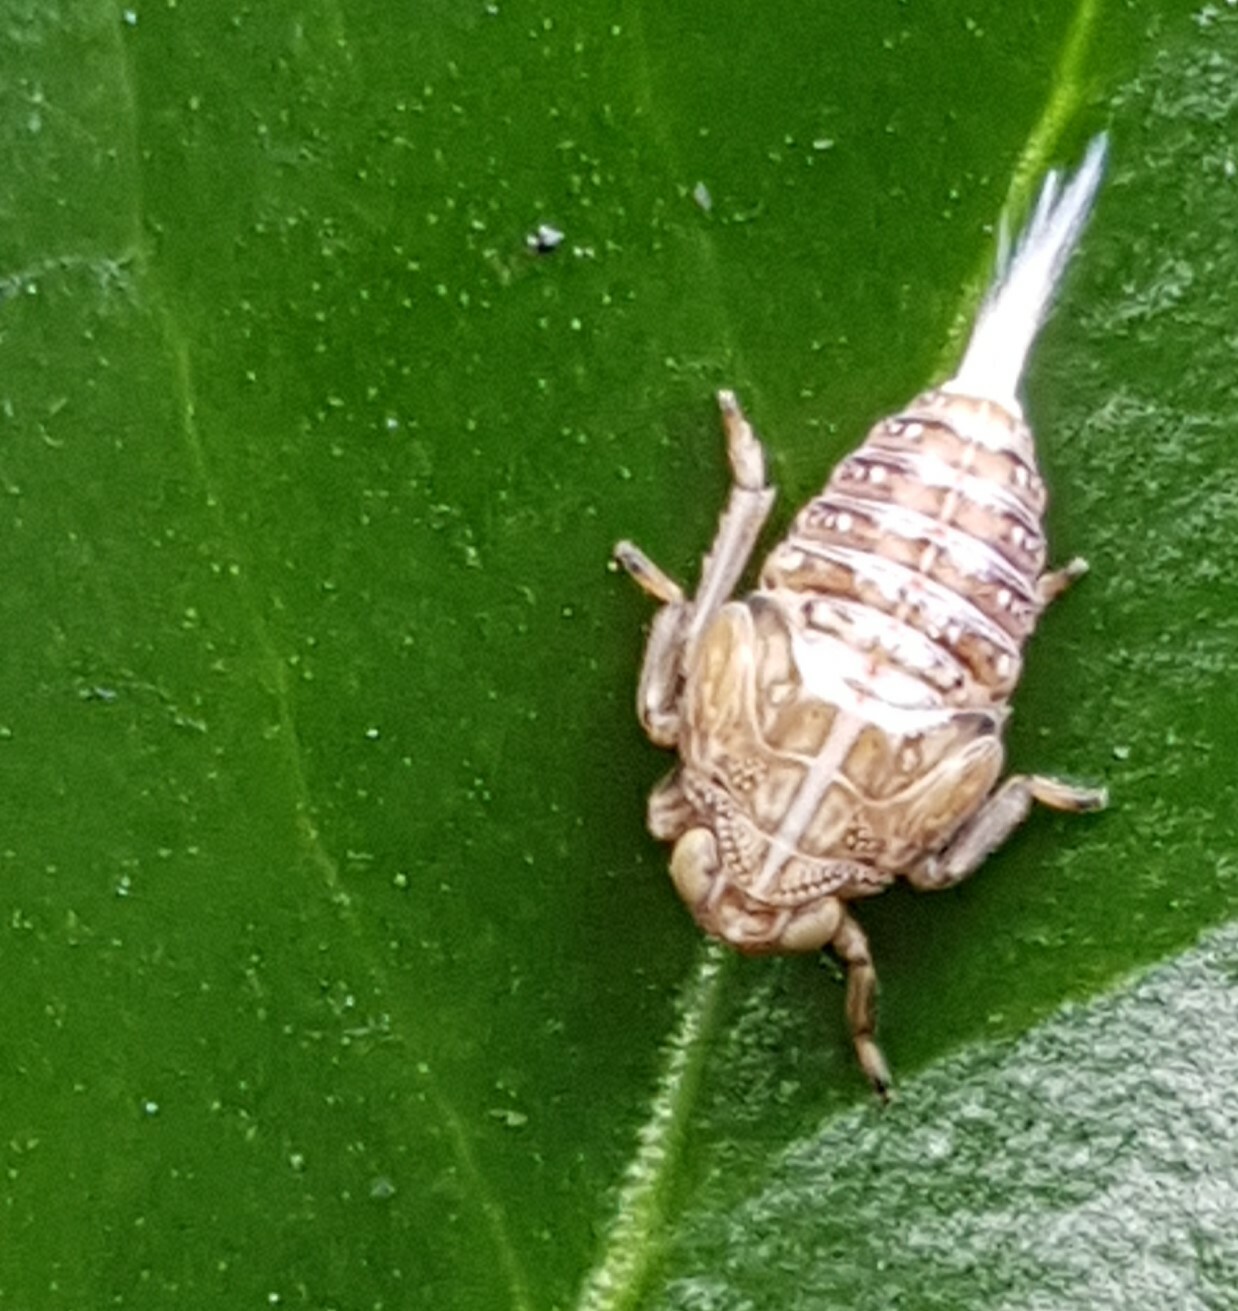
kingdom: Animalia
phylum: Arthropoda
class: Insecta
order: Hemiptera
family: Issidae
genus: Issus
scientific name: Issus coleoptratus
